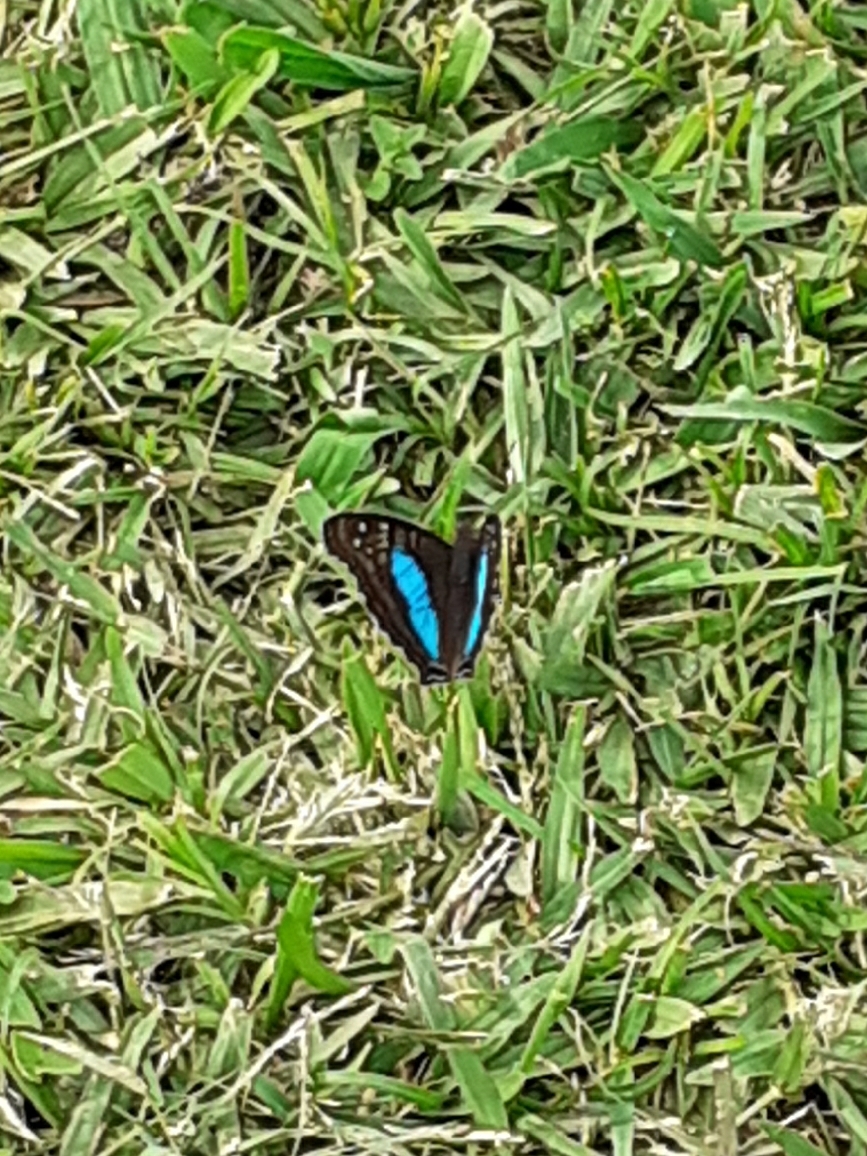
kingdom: Animalia
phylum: Arthropoda
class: Insecta
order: Lepidoptera
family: Nymphalidae
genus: Doxocopa
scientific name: Doxocopa laurentia
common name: Turquoise emperor
